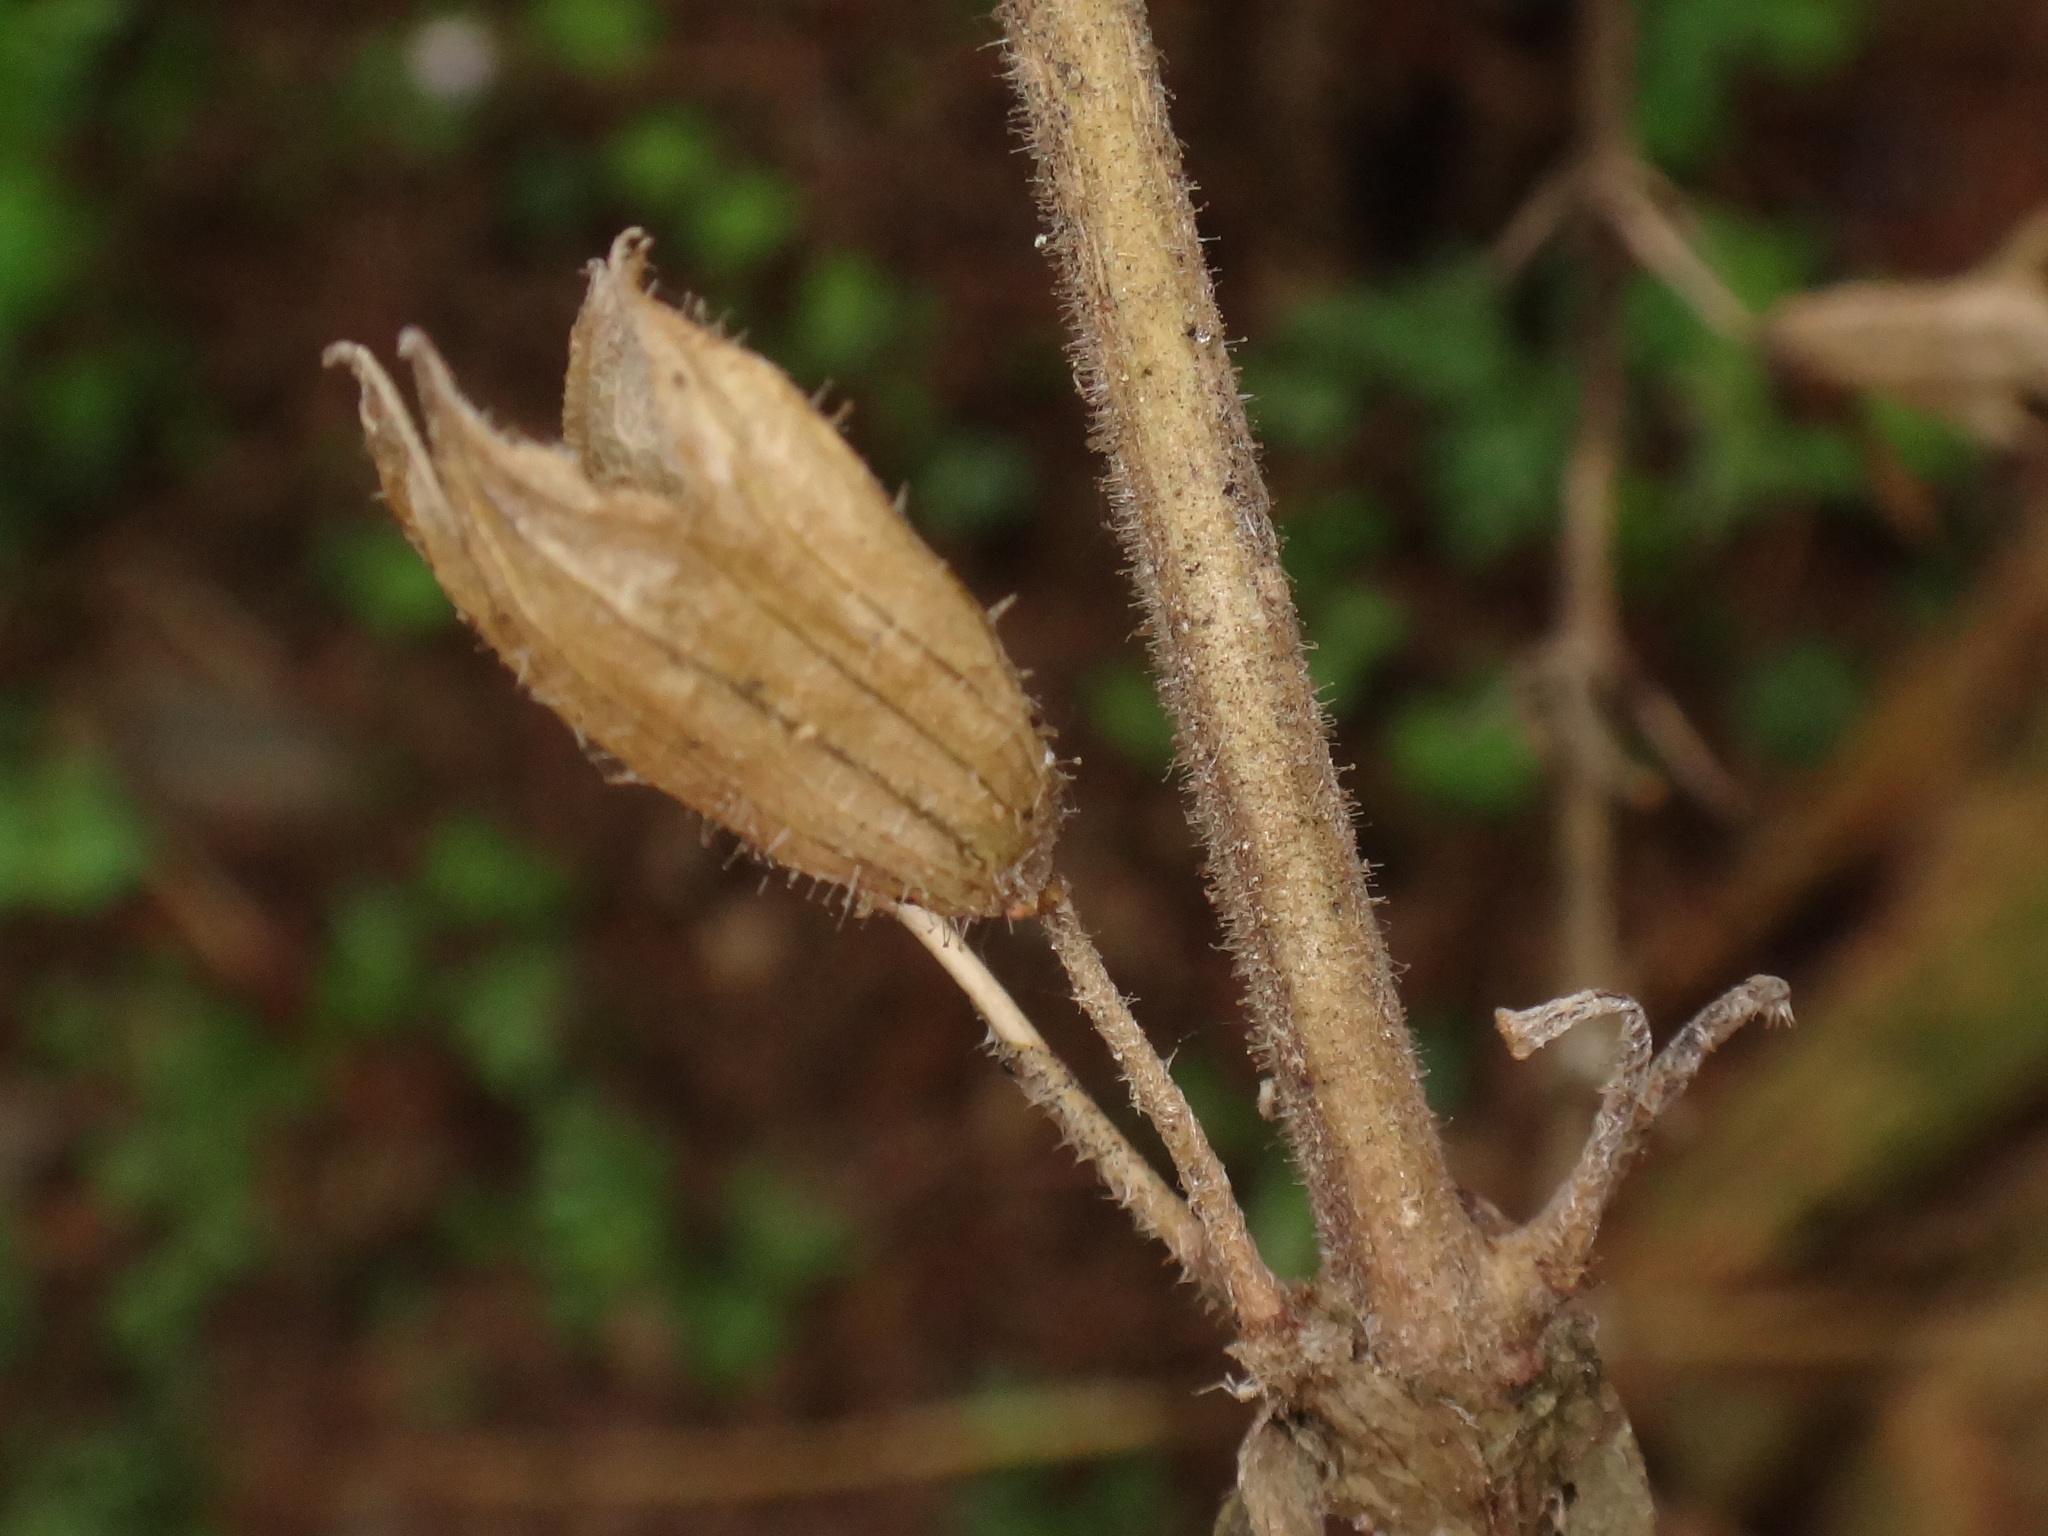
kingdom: Plantae
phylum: Tracheophyta
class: Magnoliopsida
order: Lamiales
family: Lamiaceae
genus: Salvia
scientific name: Salvia glutinosa
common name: Sticky clary
